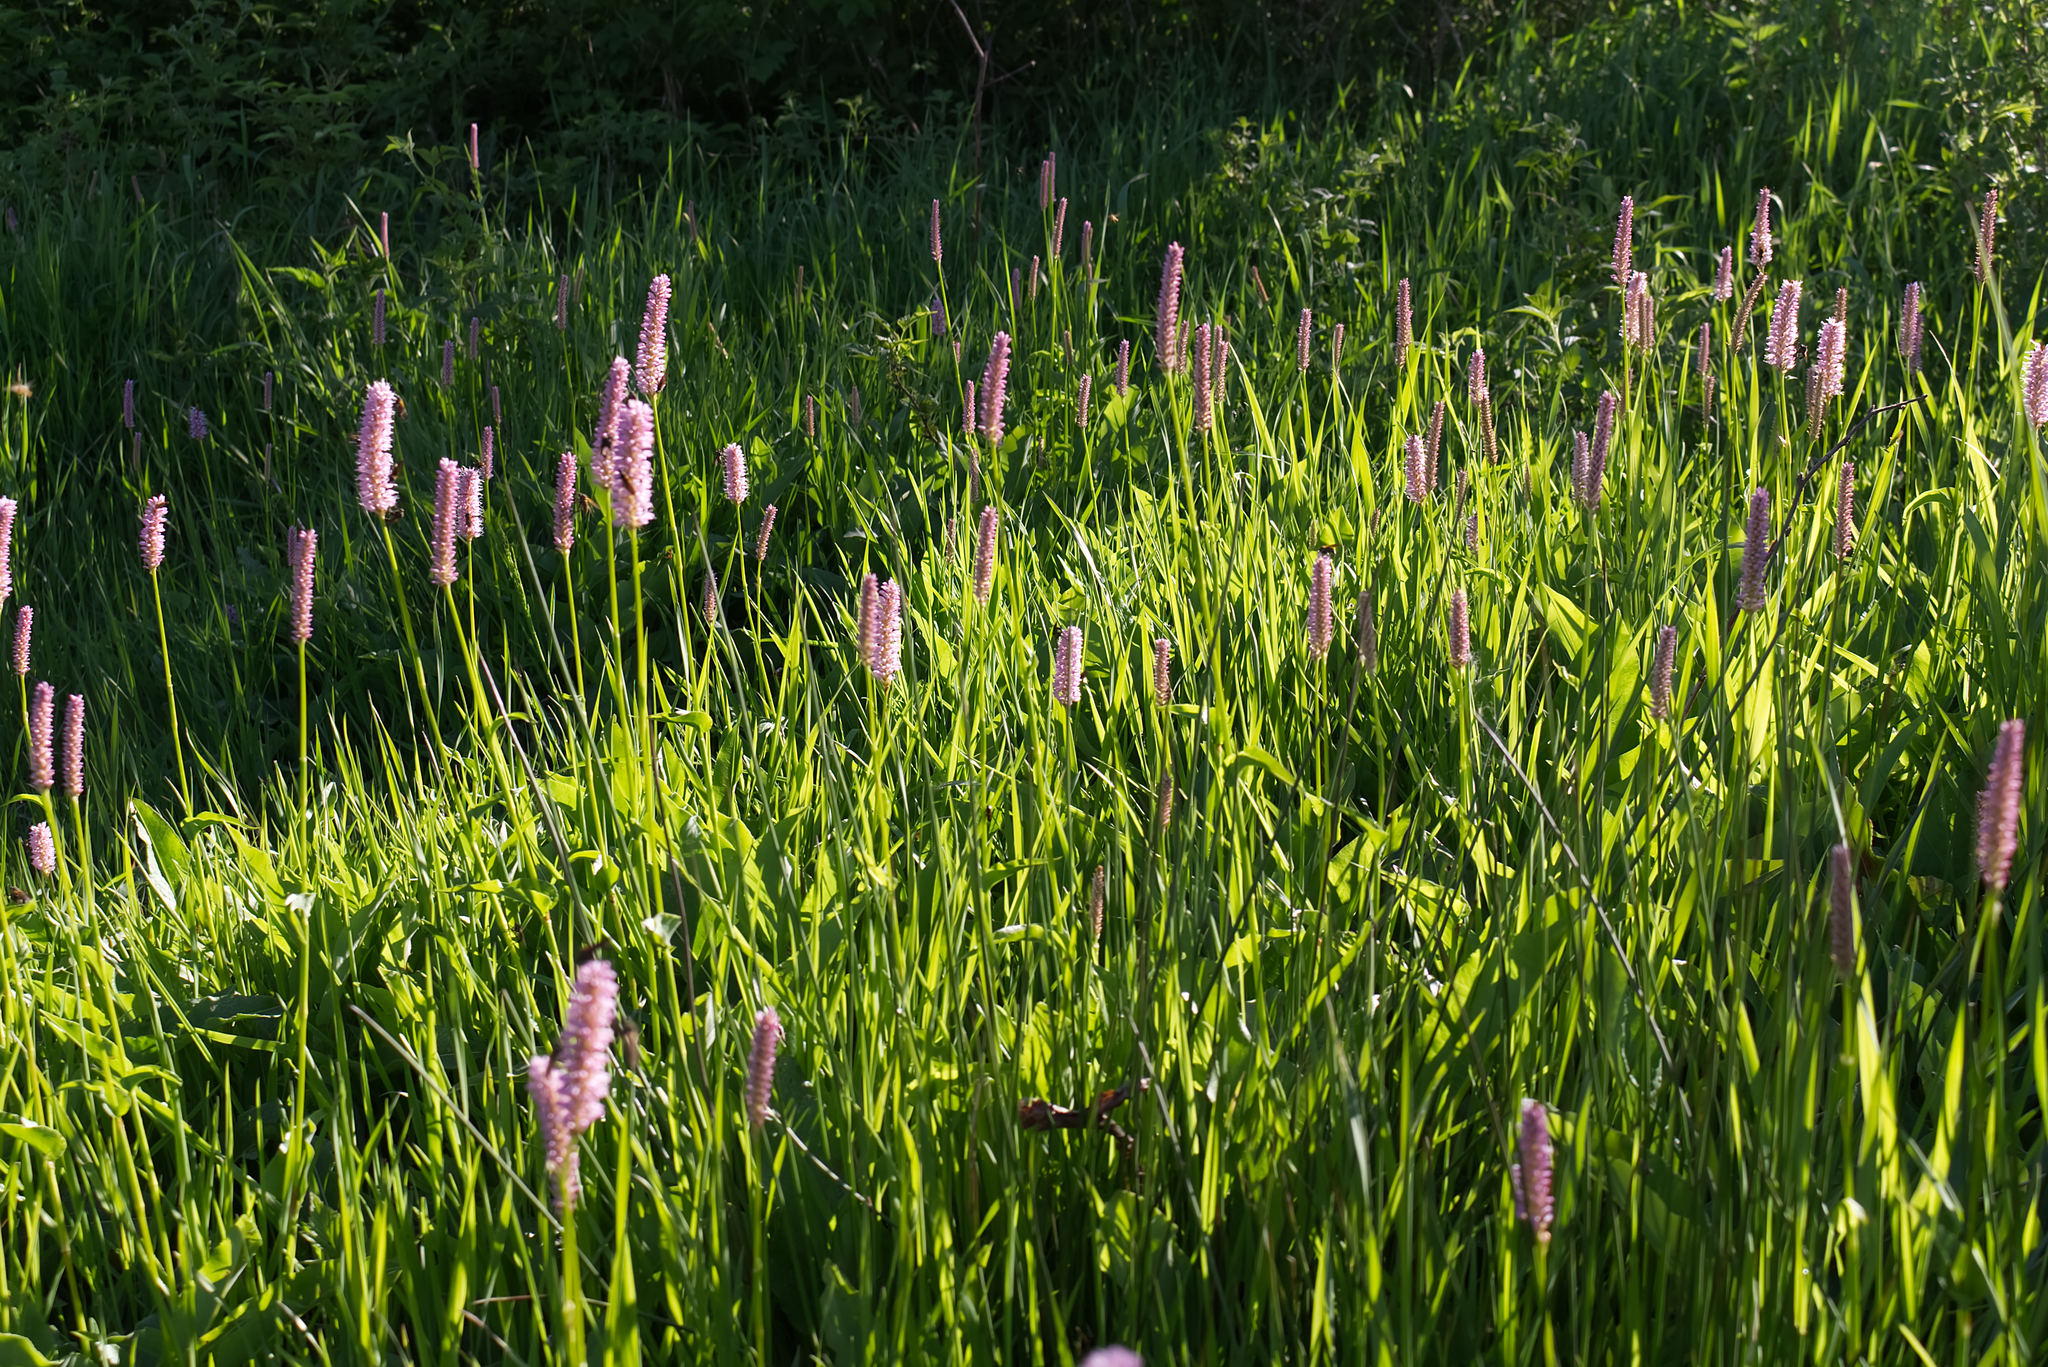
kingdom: Plantae
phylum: Tracheophyta
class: Magnoliopsida
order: Caryophyllales
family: Polygonaceae
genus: Bistorta
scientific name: Bistorta officinalis
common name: Common bistort
